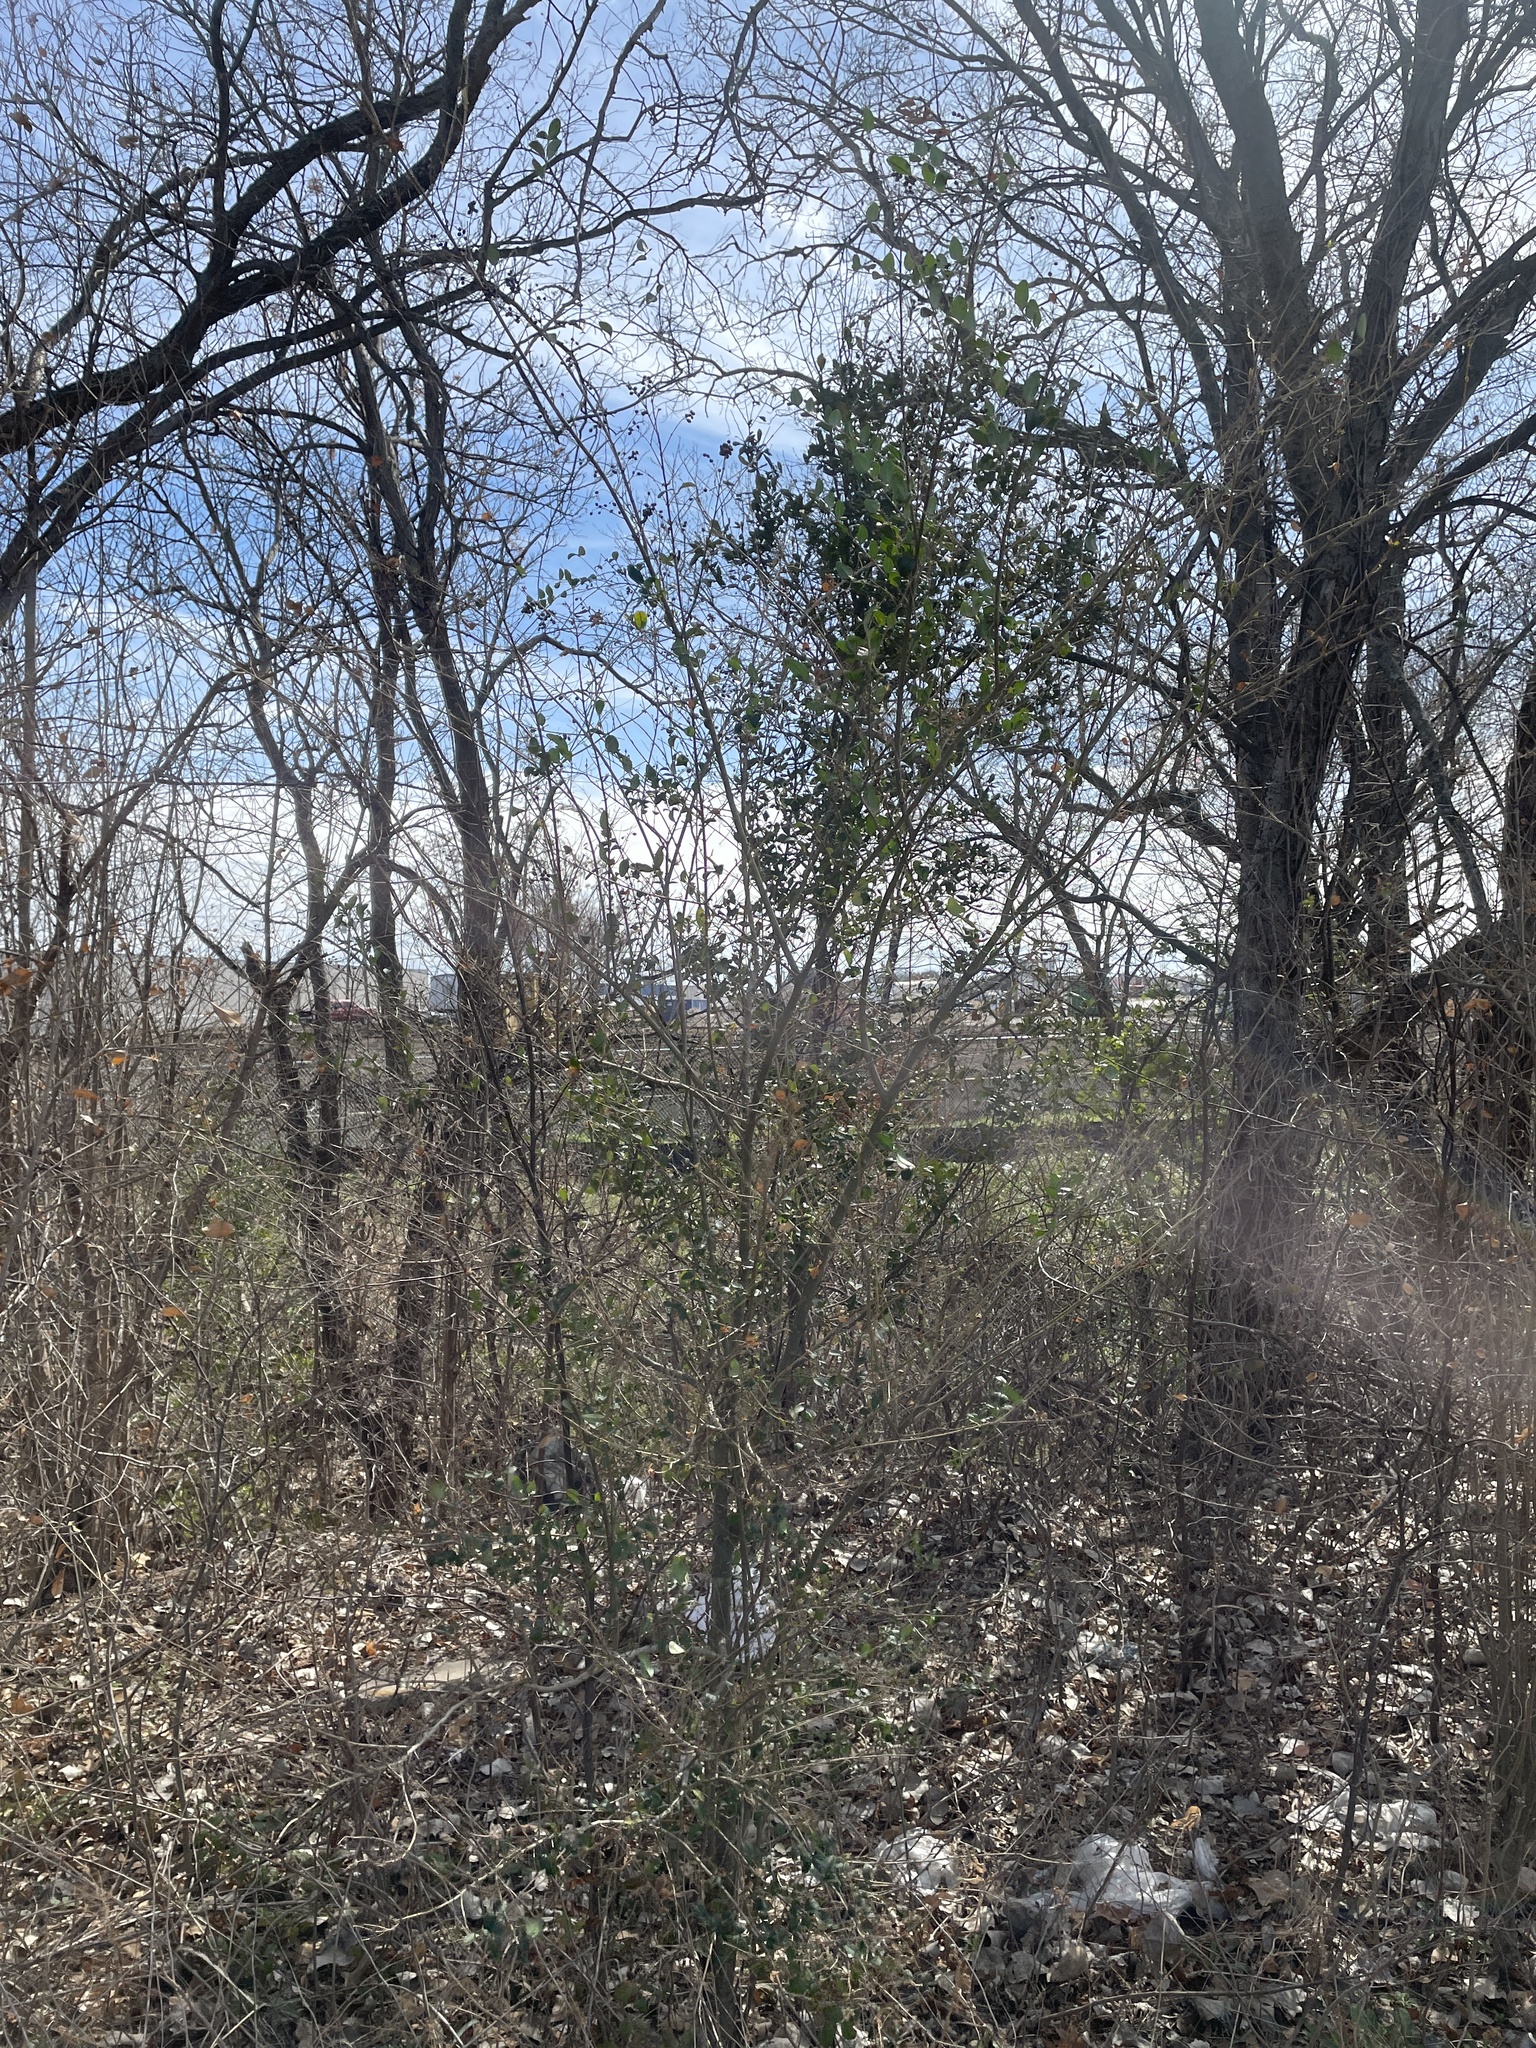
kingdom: Plantae
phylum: Tracheophyta
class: Magnoliopsida
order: Lamiales
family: Oleaceae
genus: Ligustrum
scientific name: Ligustrum sinense
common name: Chinese privet
